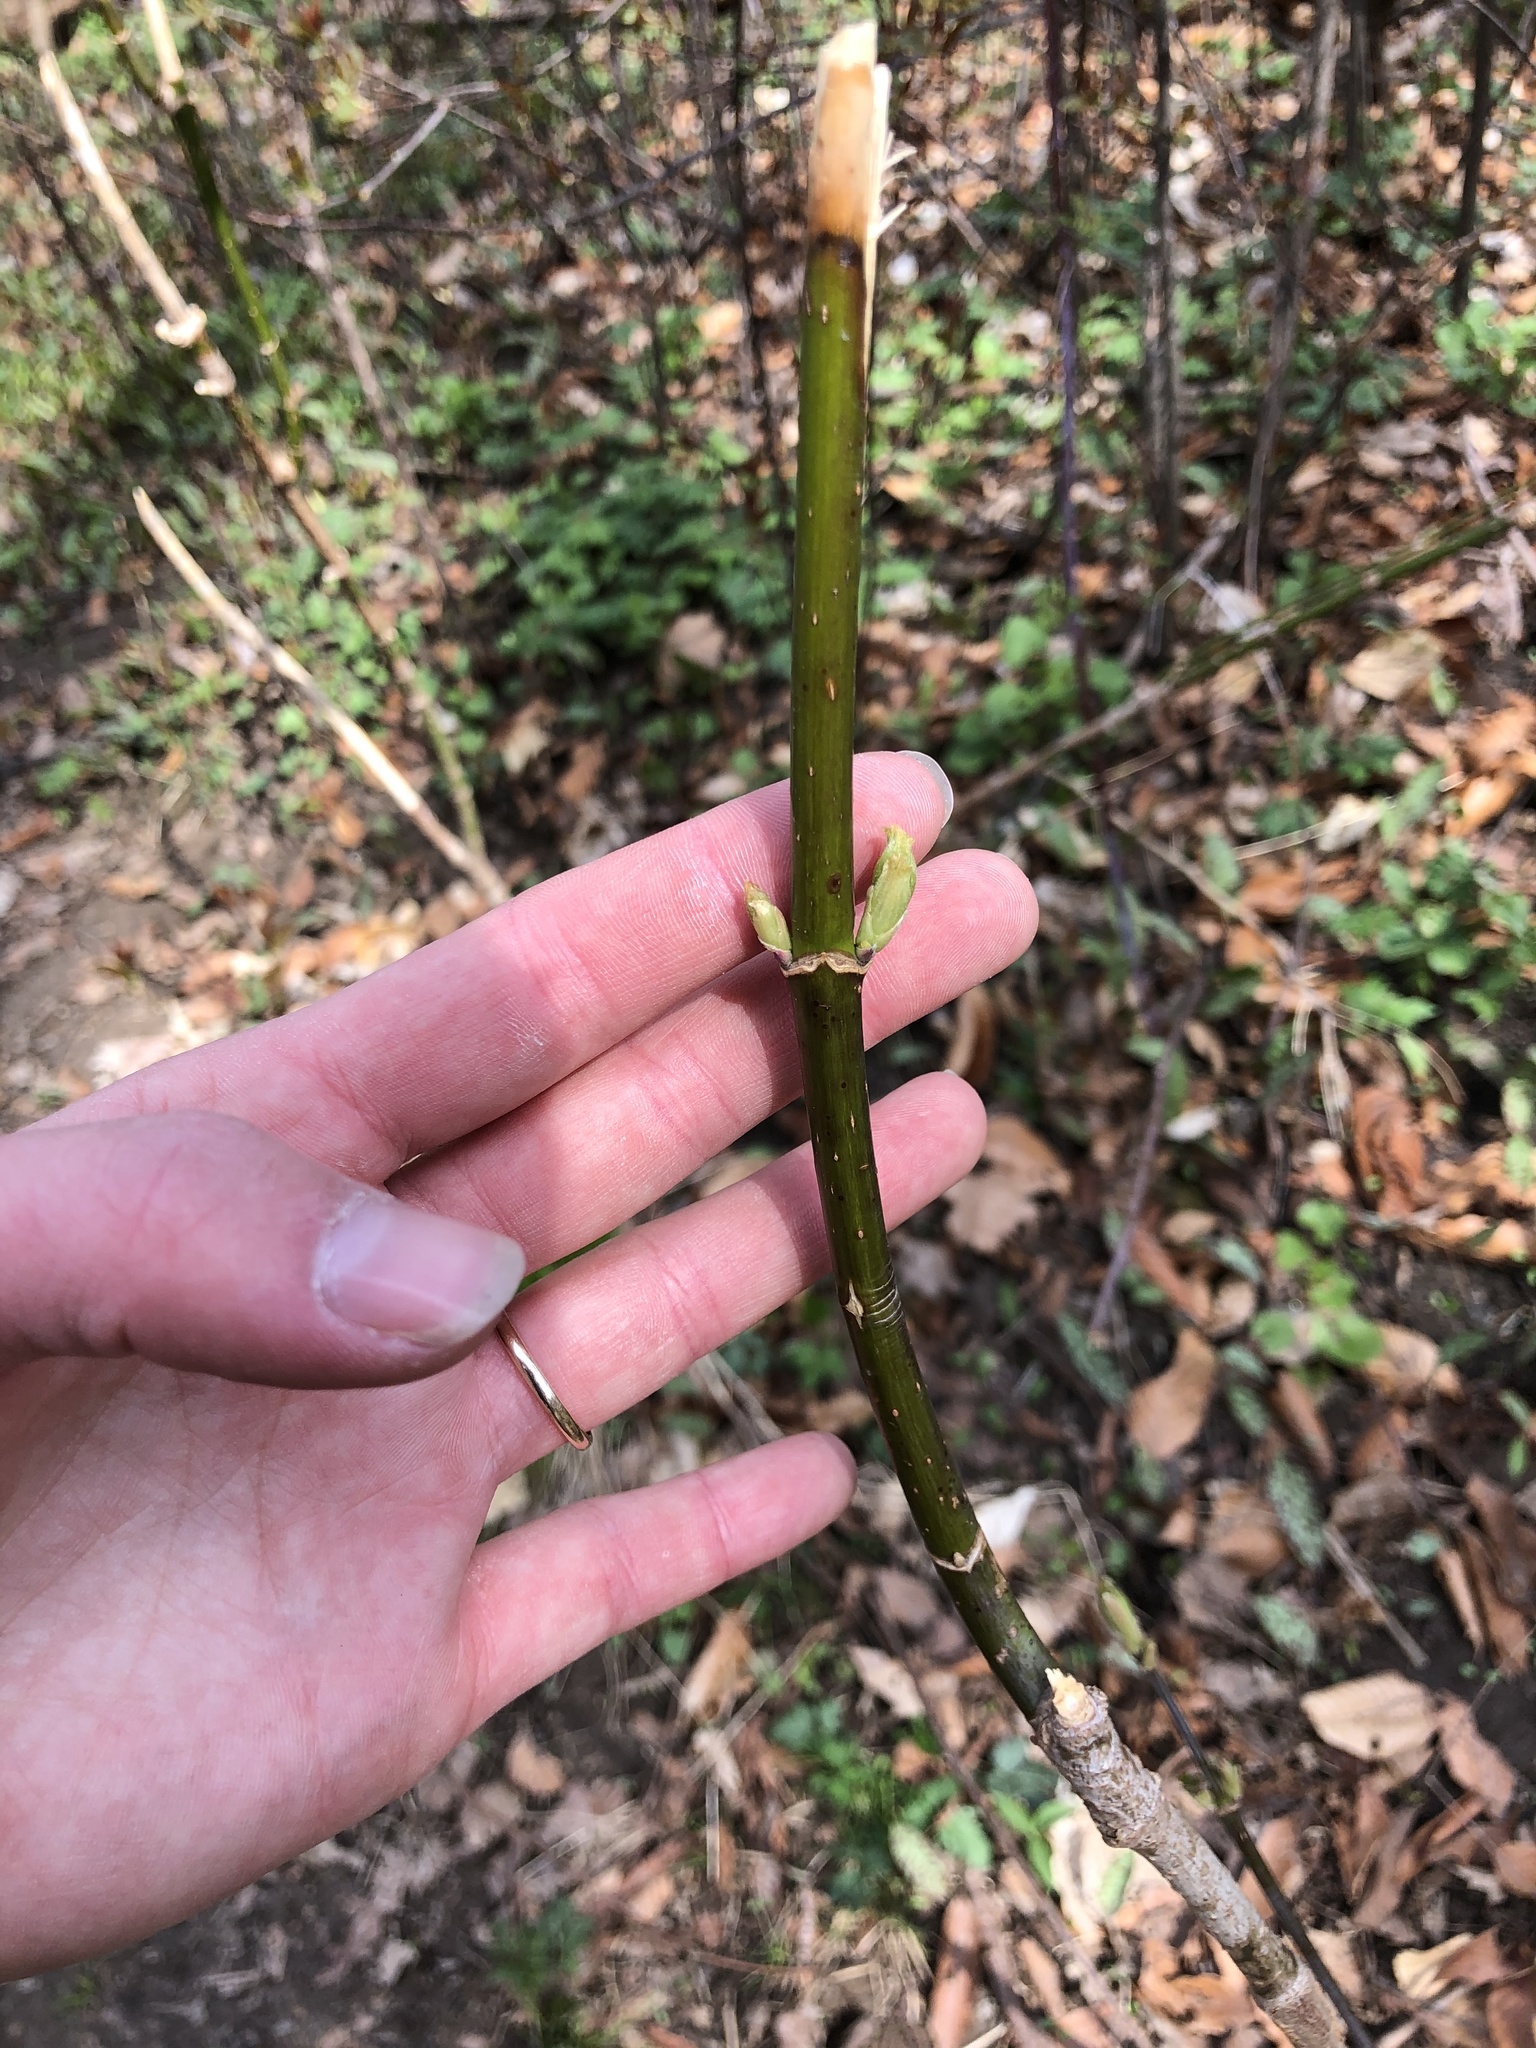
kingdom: Plantae
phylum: Tracheophyta
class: Magnoliopsida
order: Sapindales
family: Sapindaceae
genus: Acer
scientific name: Acer negundo
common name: Ashleaf maple
